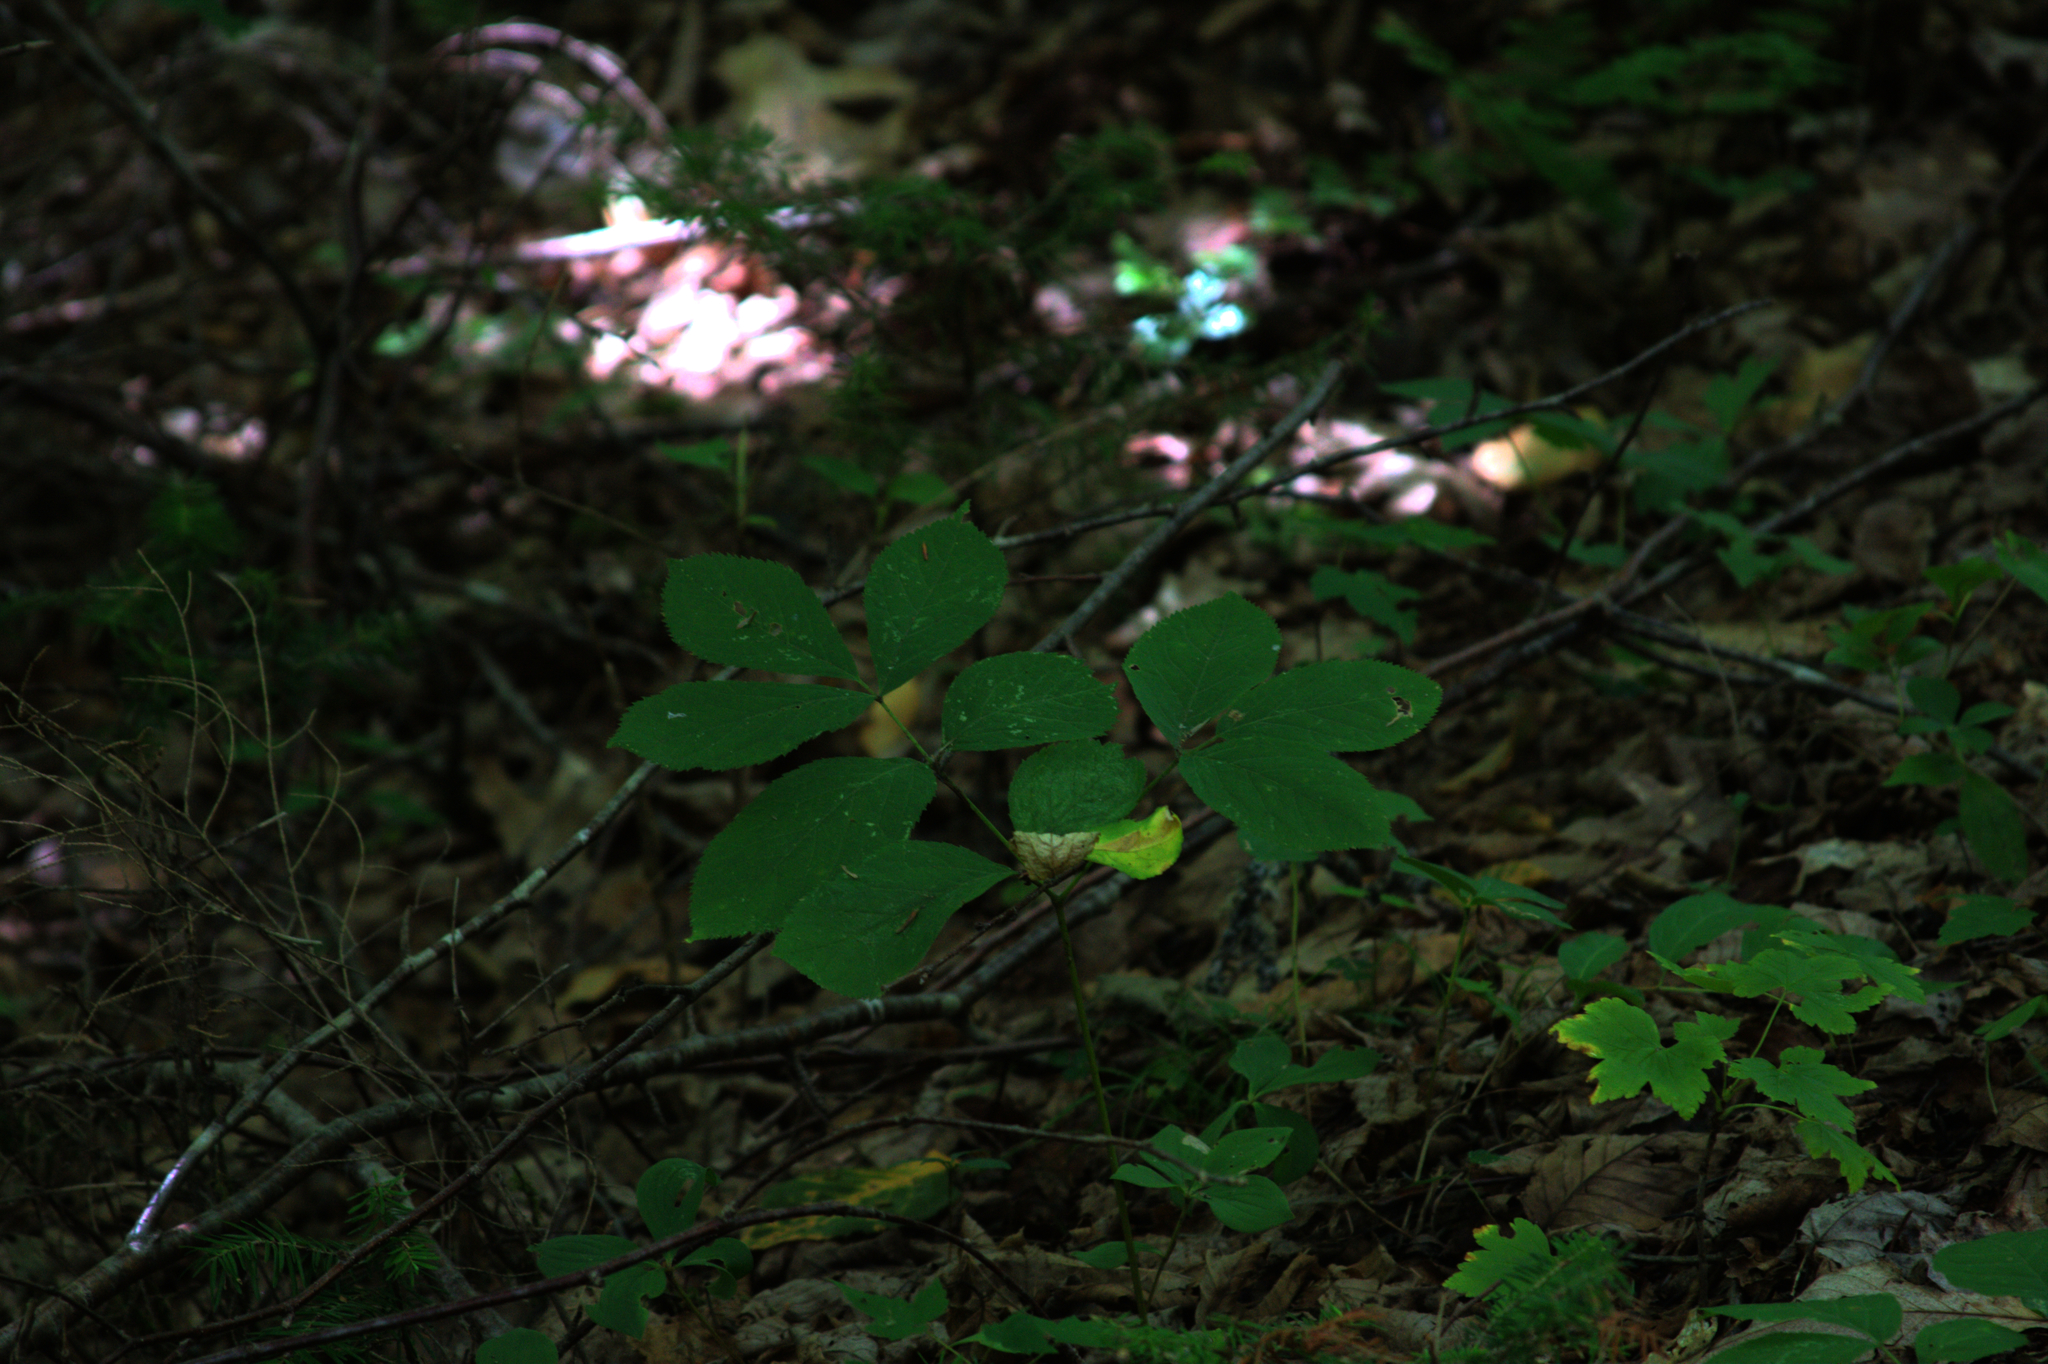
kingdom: Plantae
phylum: Tracheophyta
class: Magnoliopsida
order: Apiales
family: Araliaceae
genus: Aralia
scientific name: Aralia nudicaulis
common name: Wild sarsaparilla
